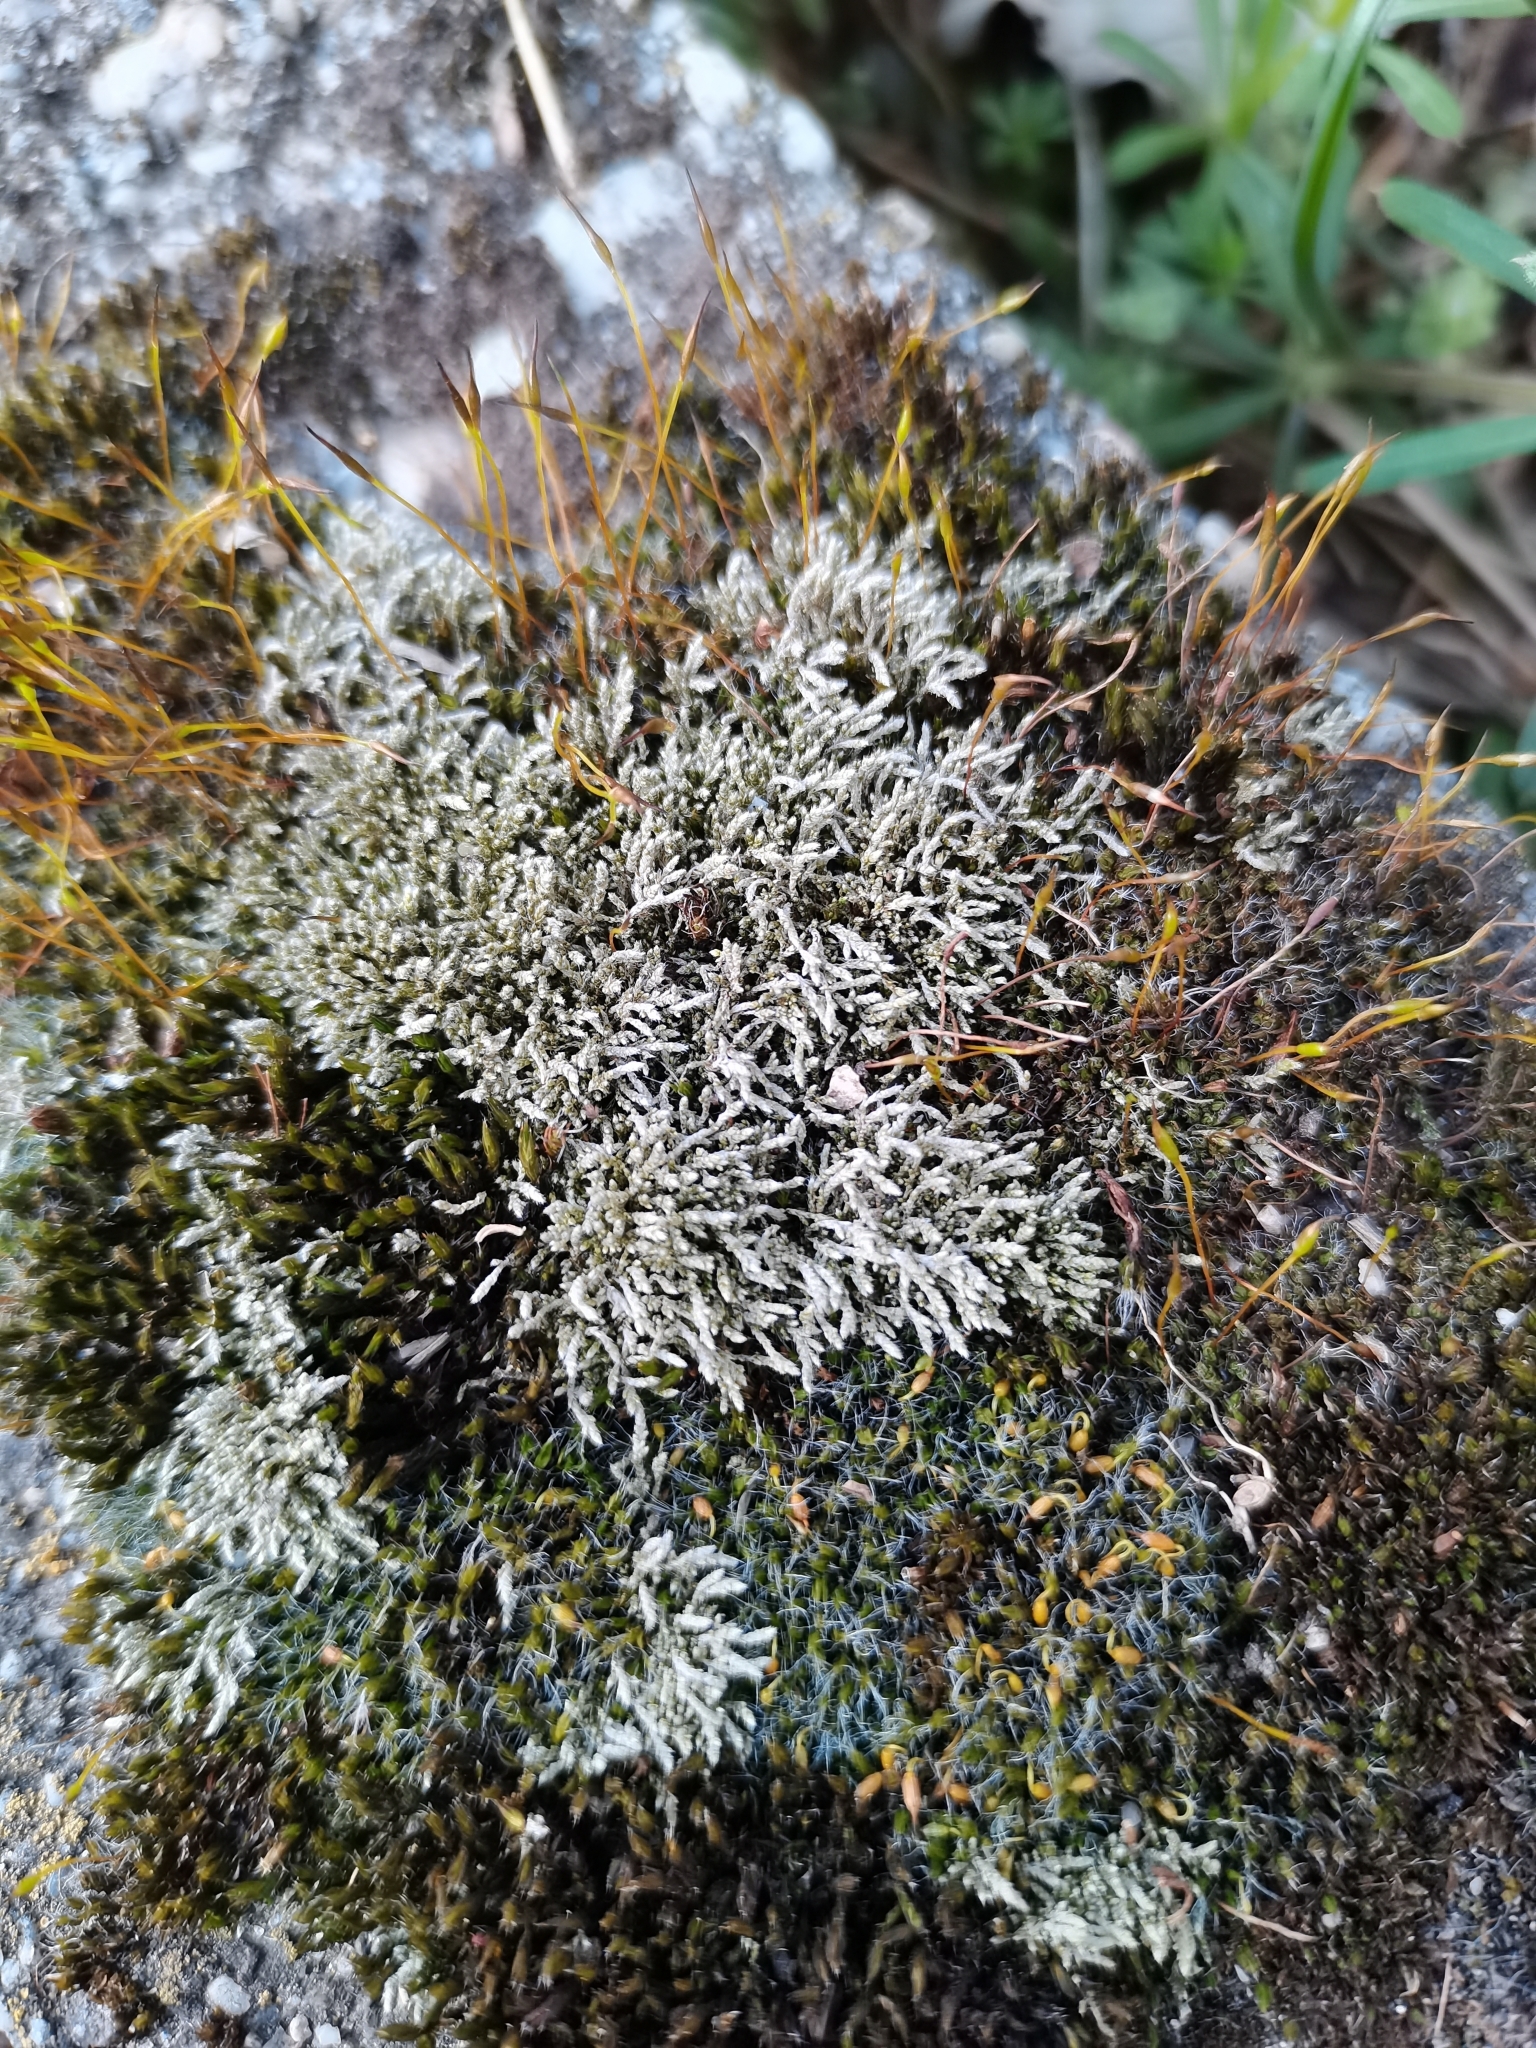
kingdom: Plantae
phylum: Bryophyta
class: Bryopsida
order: Bryales
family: Bryaceae
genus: Bryum
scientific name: Bryum argenteum
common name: Silver-moss
